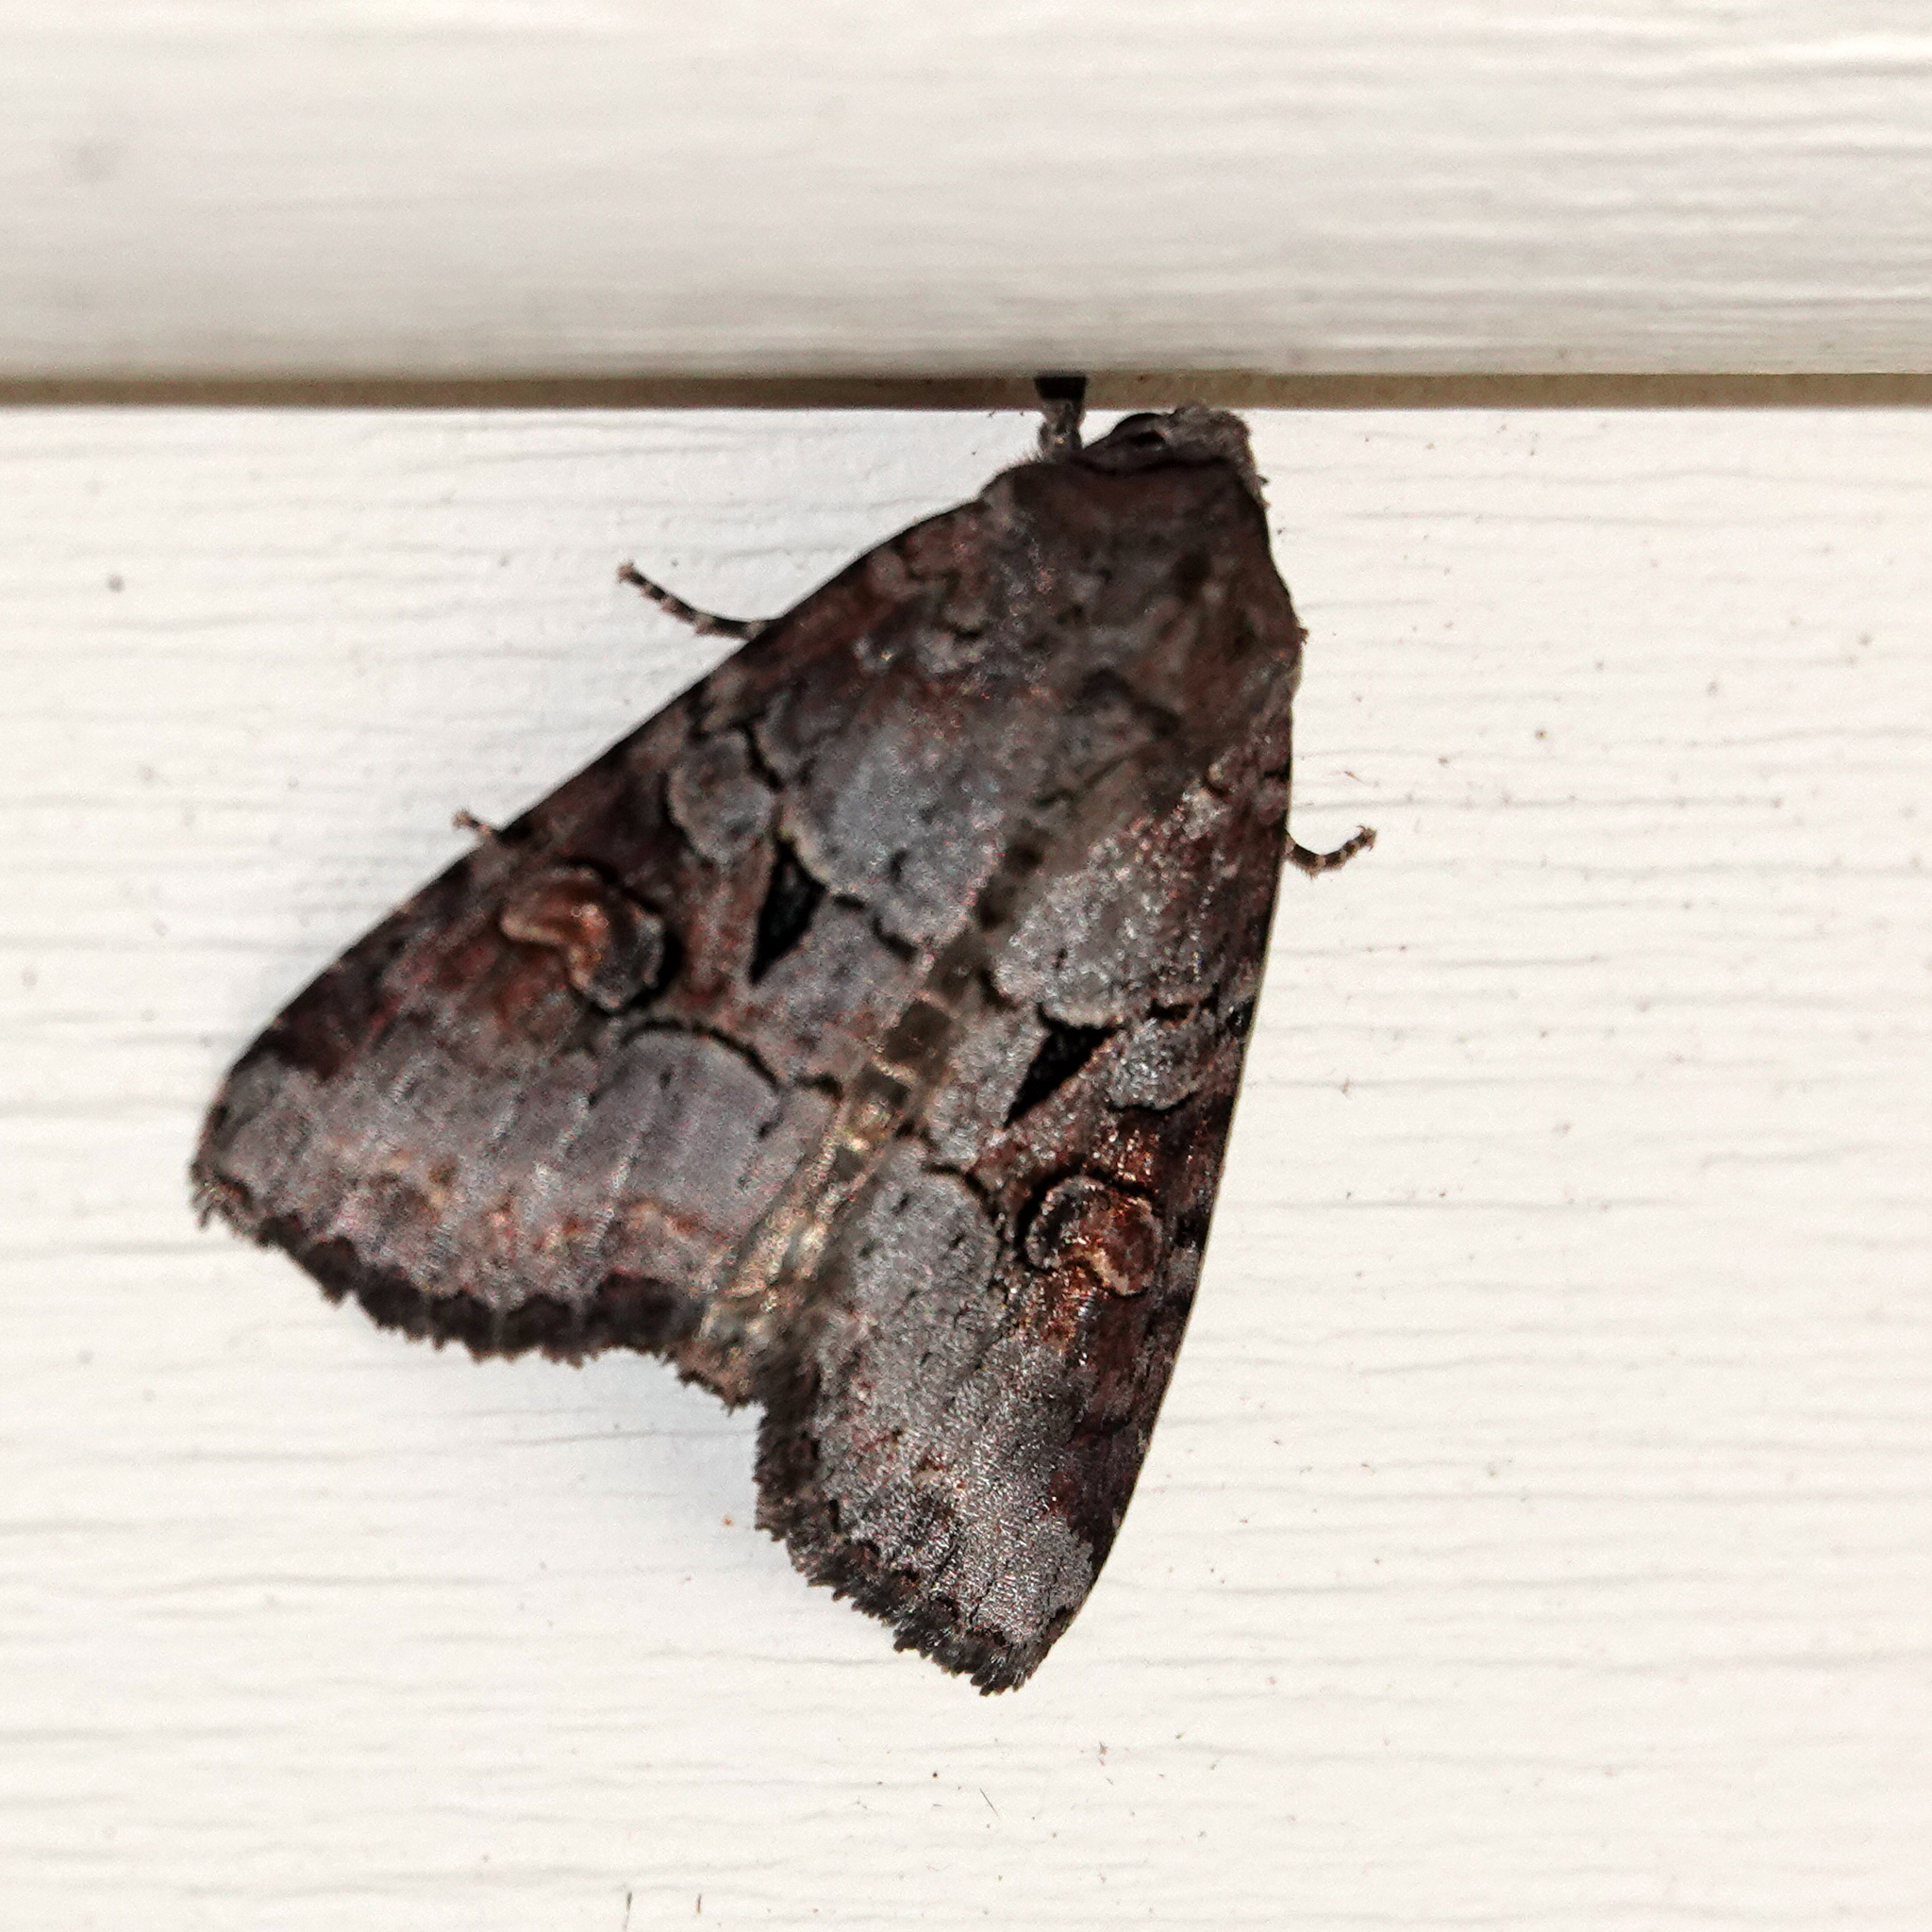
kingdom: Animalia
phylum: Arthropoda
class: Insecta
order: Lepidoptera
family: Noctuidae
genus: Trichordestra
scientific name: Trichordestra legitima
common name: Striped garden caterpillar
